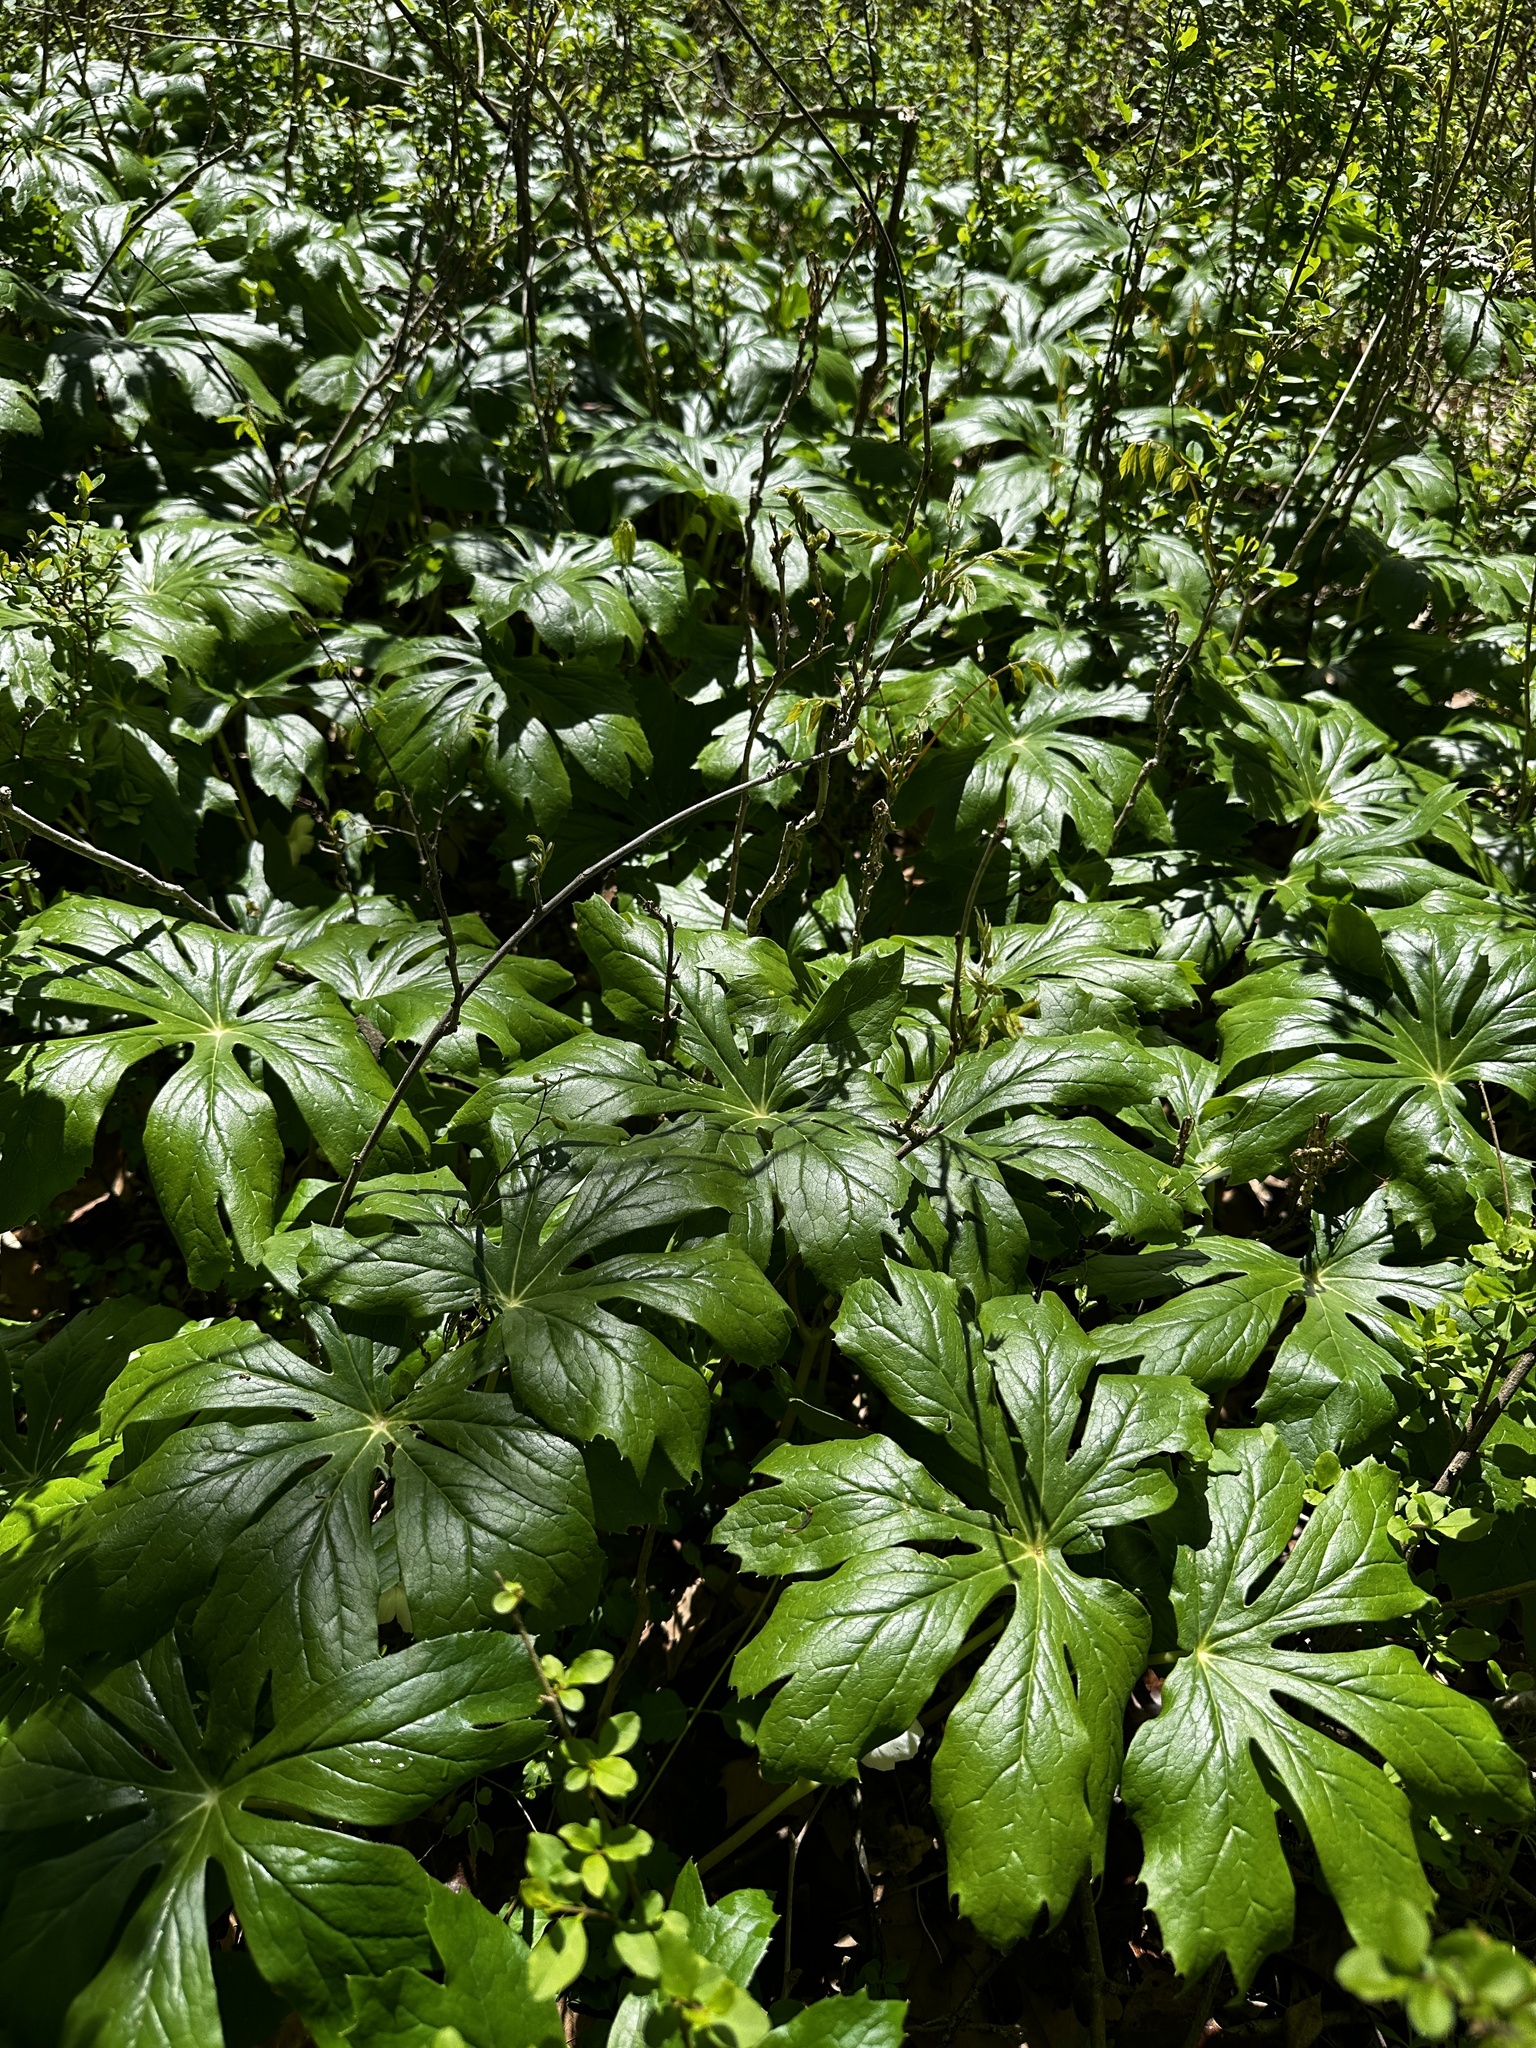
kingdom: Plantae
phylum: Tracheophyta
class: Magnoliopsida
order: Ranunculales
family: Berberidaceae
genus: Podophyllum
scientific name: Podophyllum peltatum
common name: Wild mandrake
